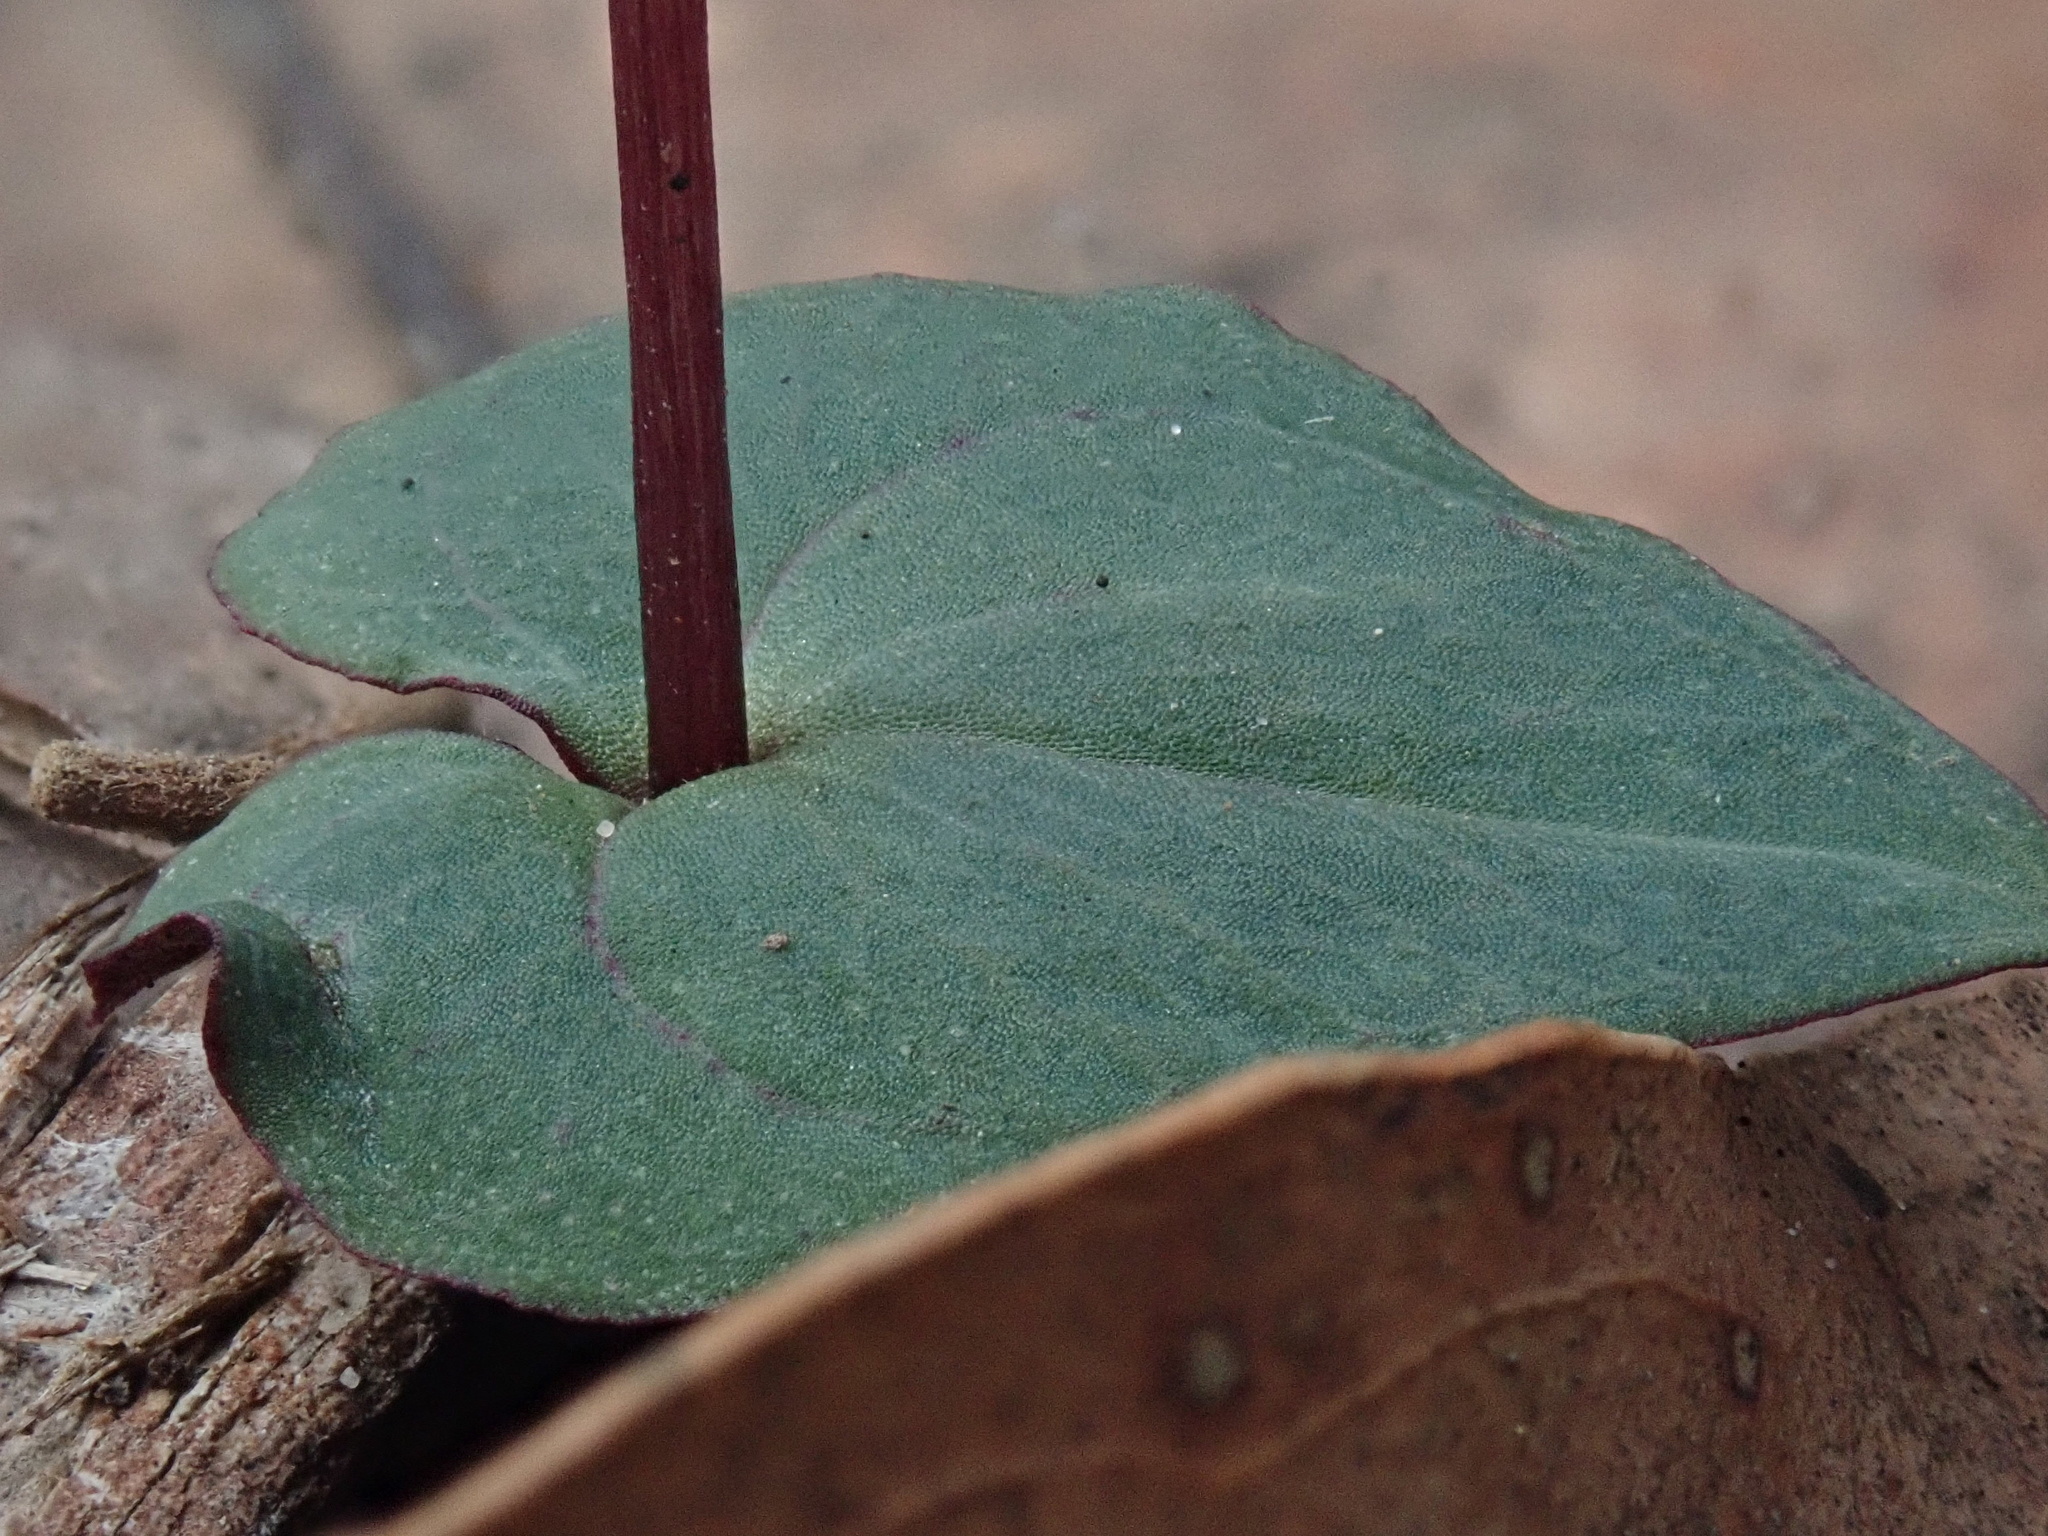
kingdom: Plantae
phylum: Tracheophyta
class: Liliopsida
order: Asparagales
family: Orchidaceae
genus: Acianthus
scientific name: Acianthus pusillus
